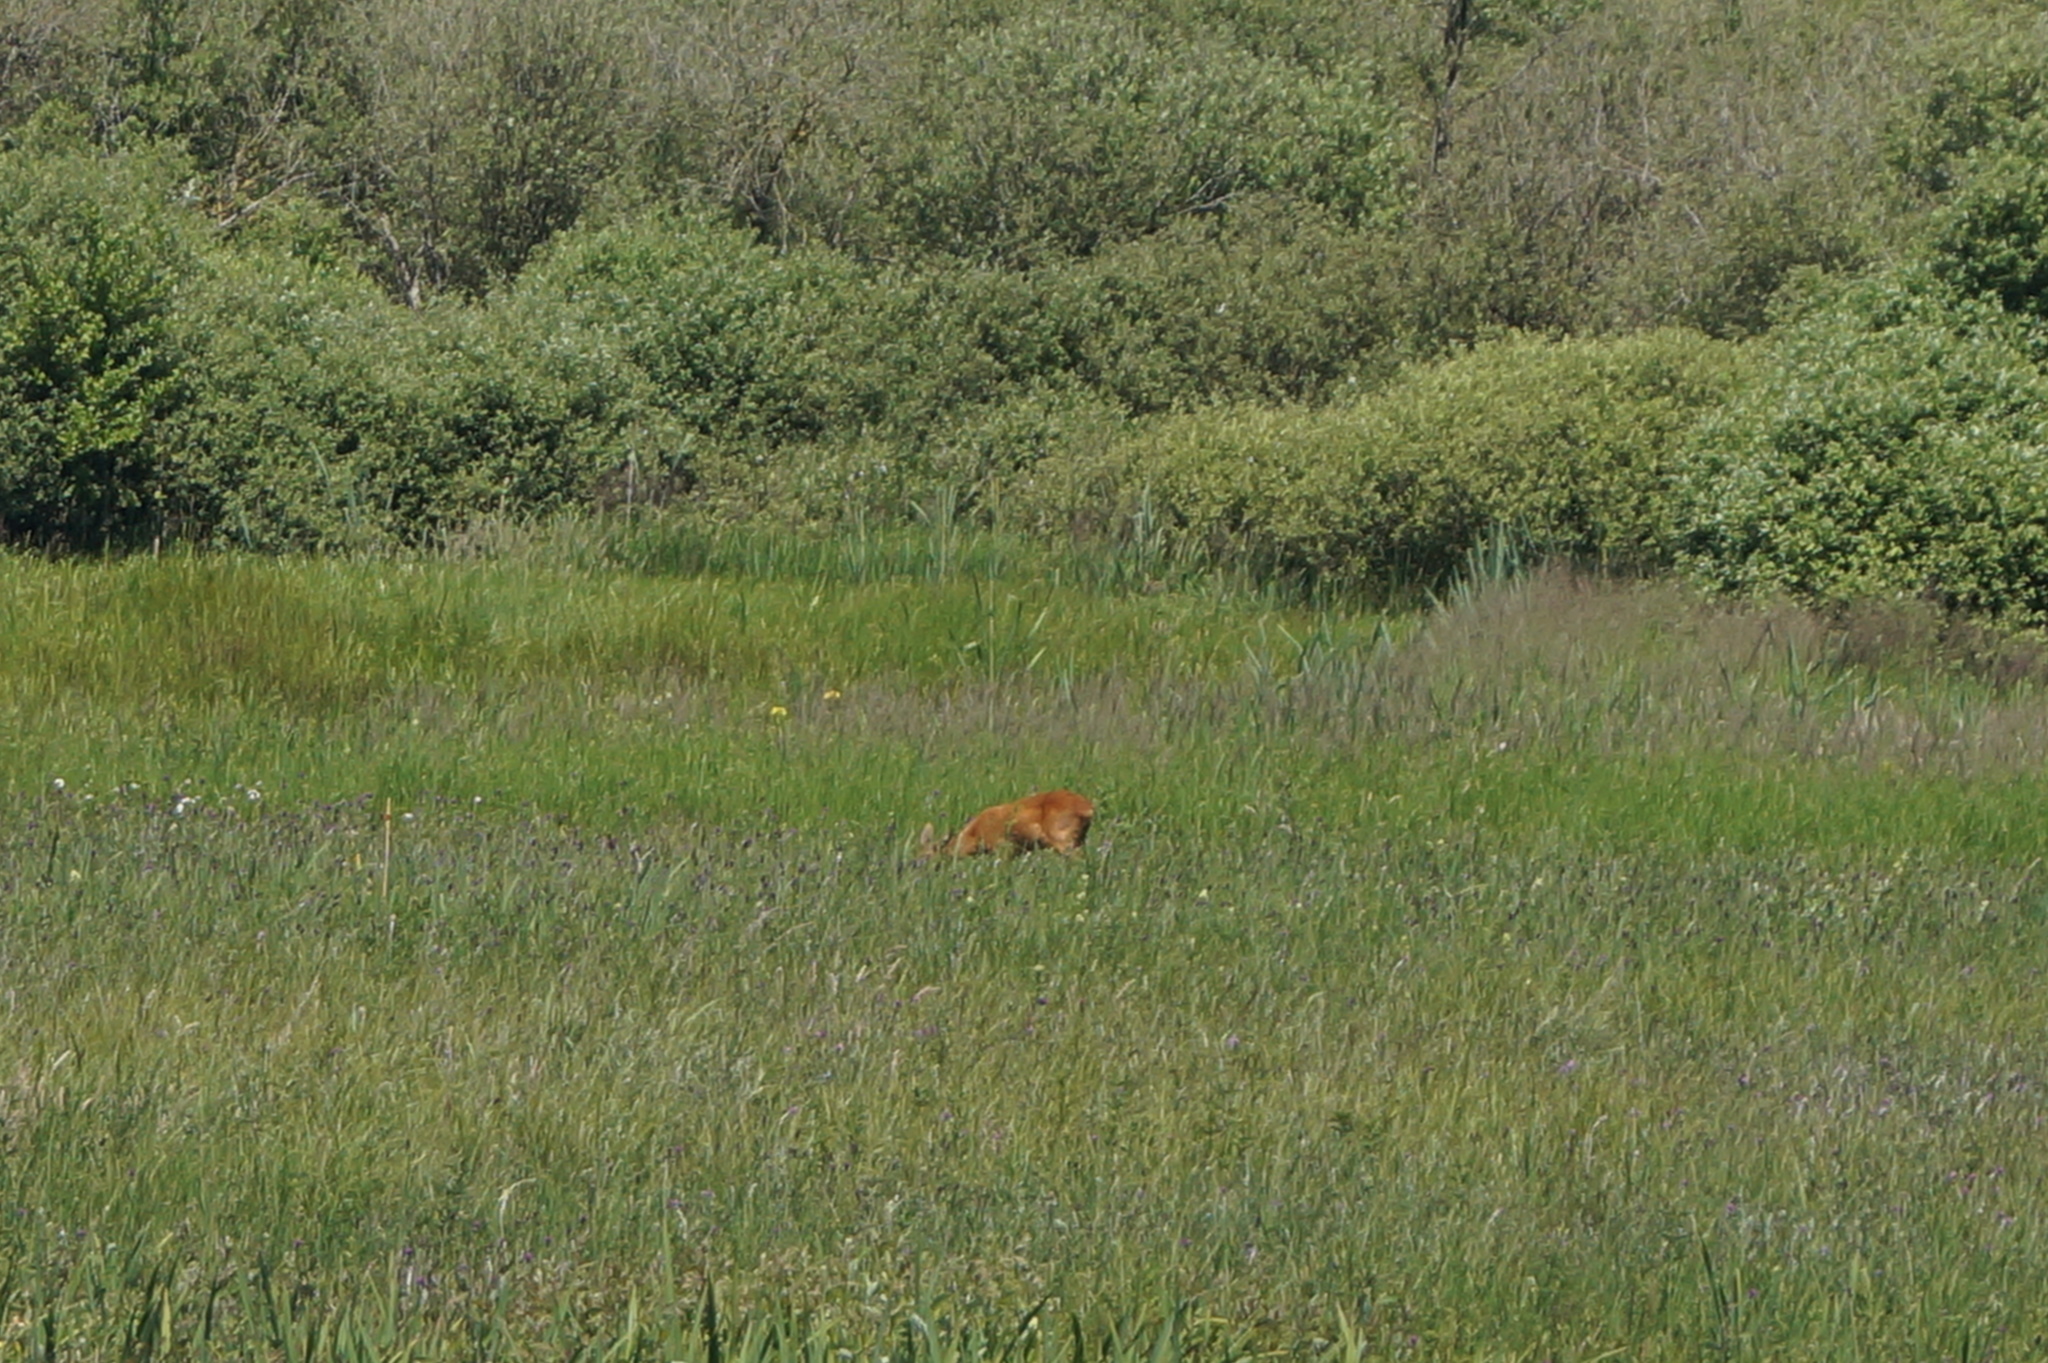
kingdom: Animalia
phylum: Chordata
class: Mammalia
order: Artiodactyla
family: Cervidae
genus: Capreolus
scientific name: Capreolus capreolus
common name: Western roe deer
